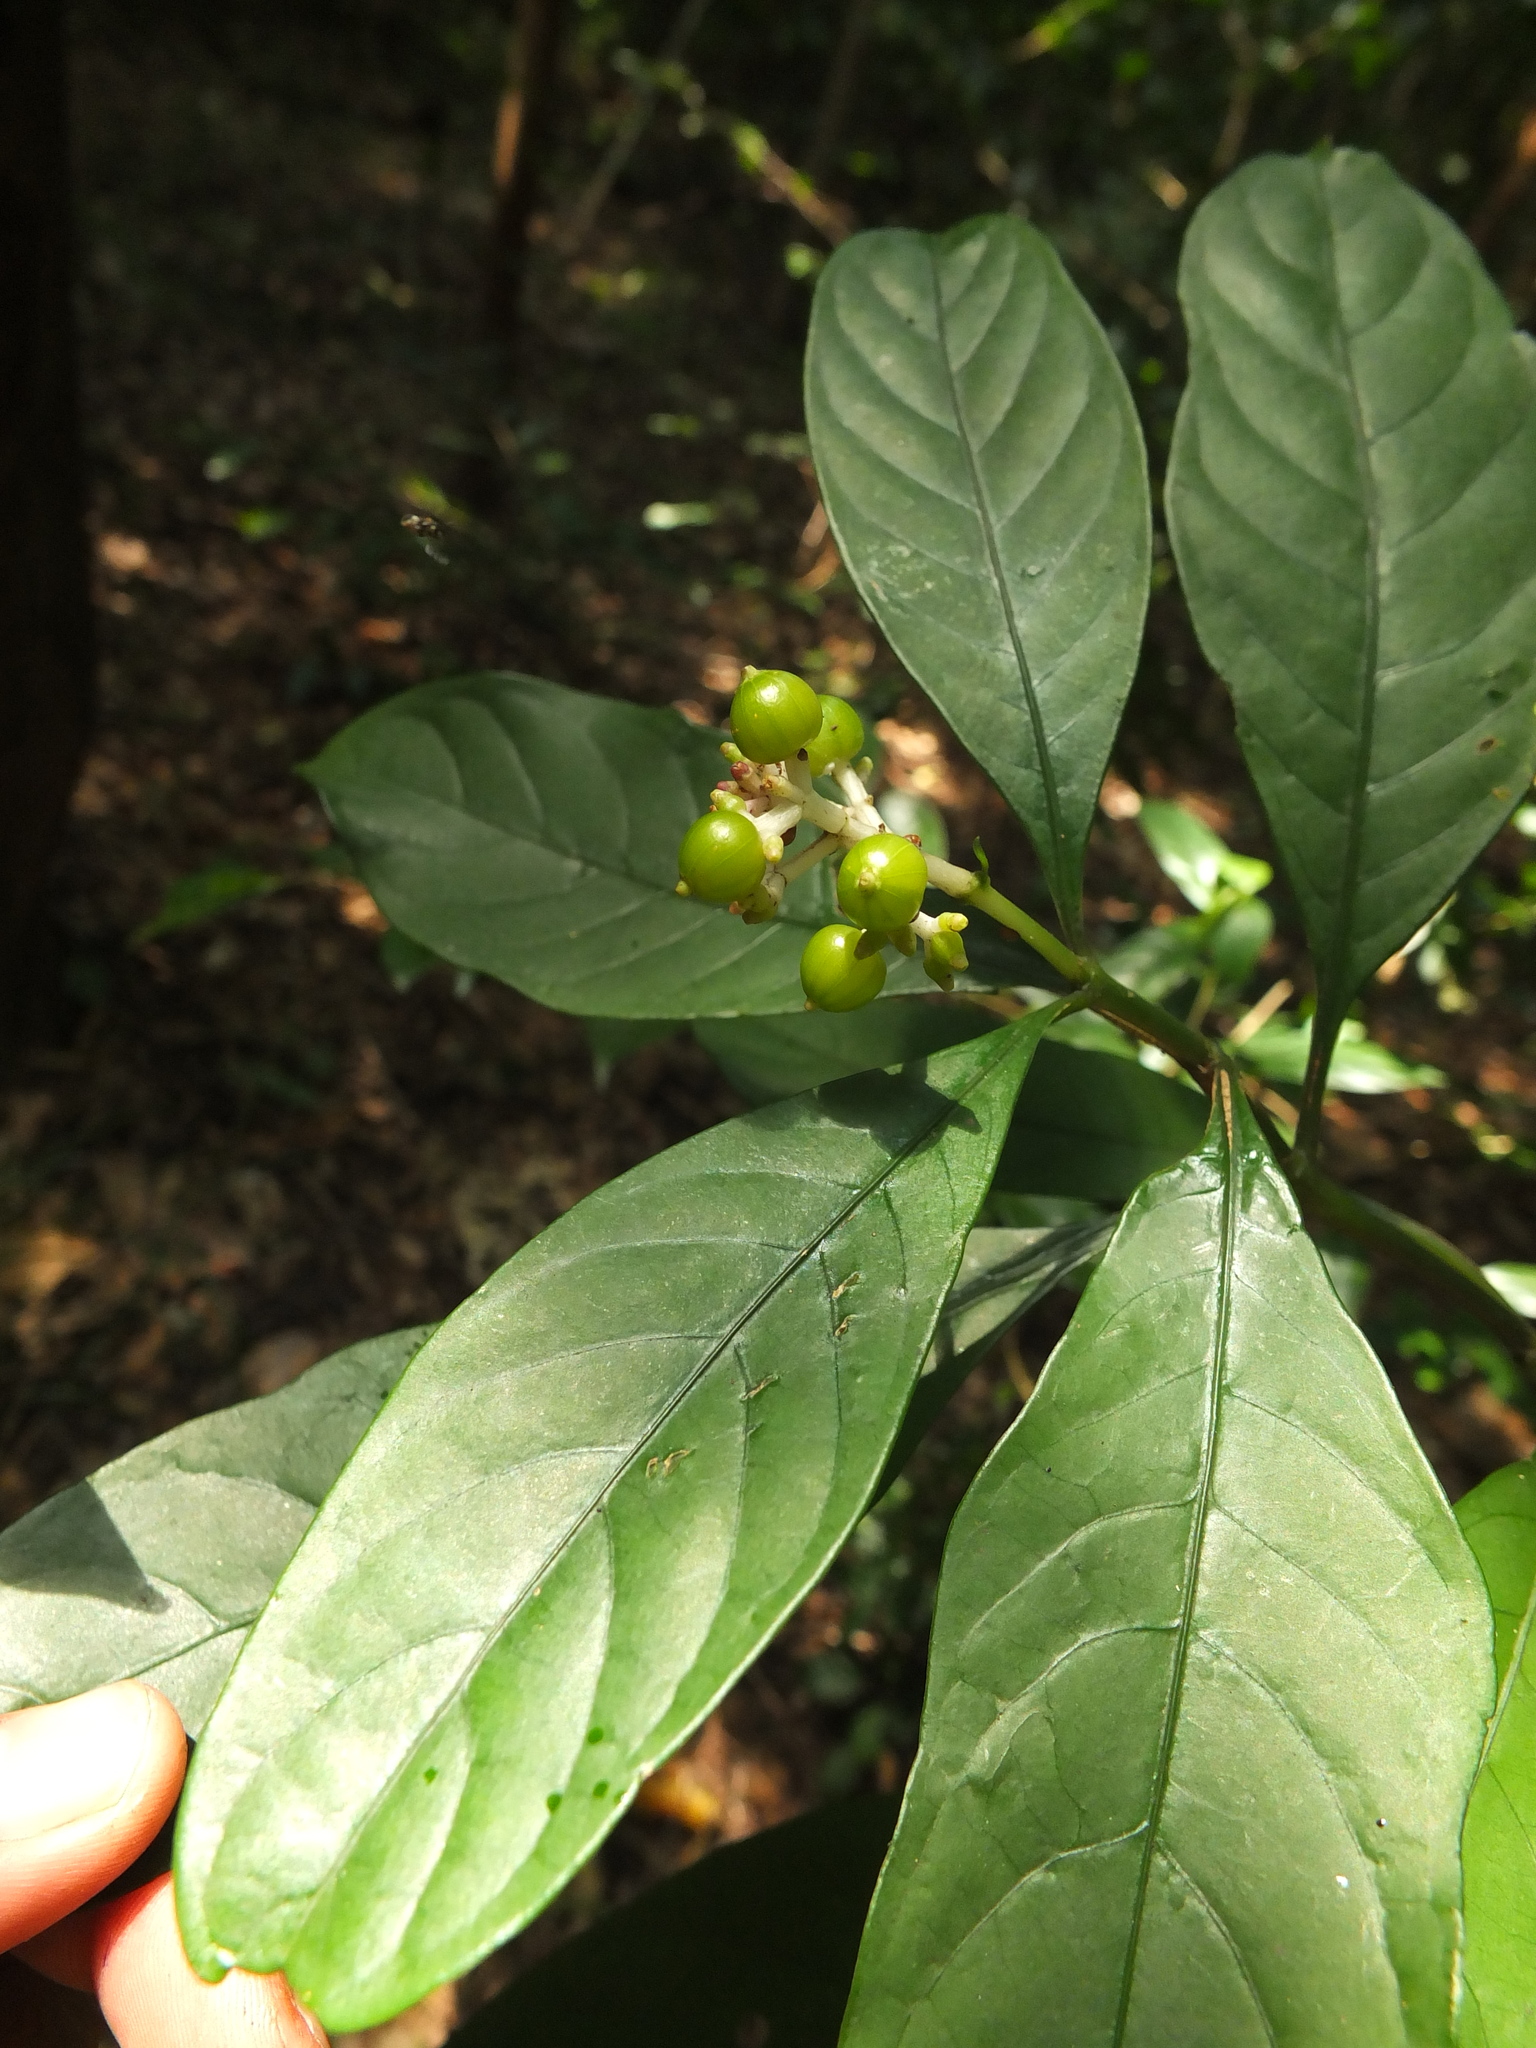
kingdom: Plantae
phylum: Tracheophyta
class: Magnoliopsida
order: Gentianales
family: Rubiaceae
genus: Chassalia
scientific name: Chassalia curviflora
